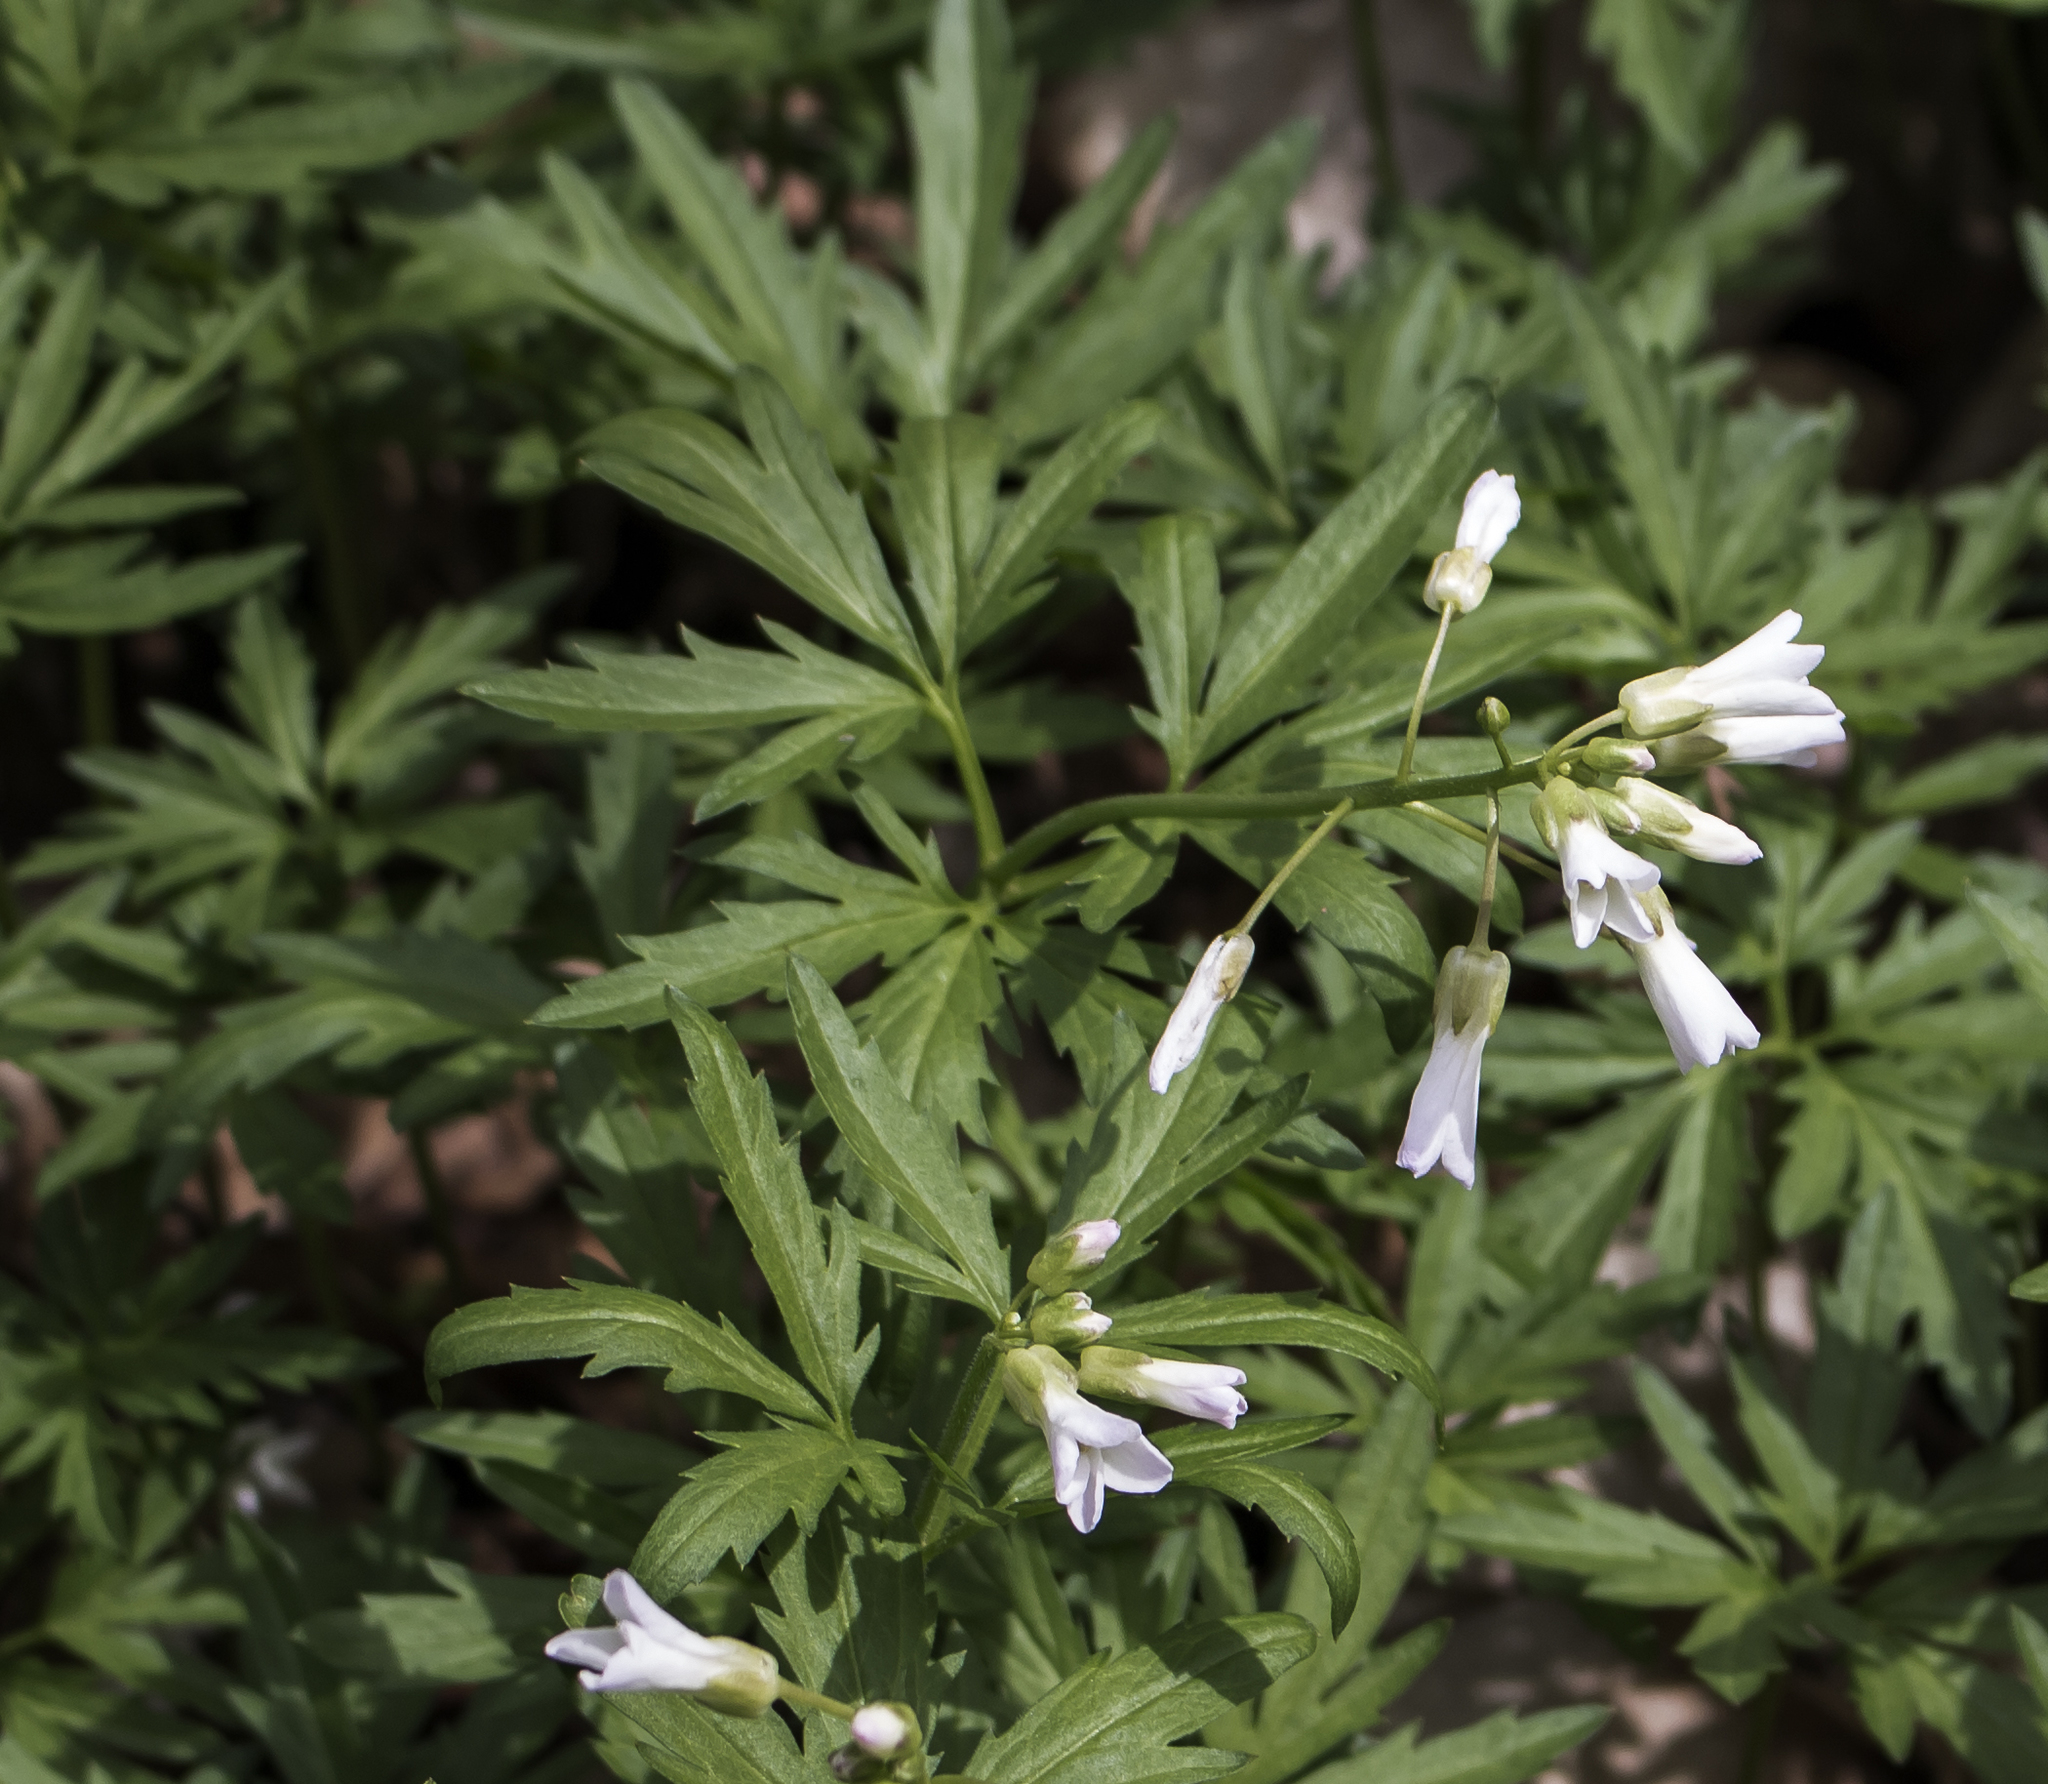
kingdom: Plantae
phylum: Tracheophyta
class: Magnoliopsida
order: Brassicales
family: Brassicaceae
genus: Cardamine
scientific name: Cardamine concatenata
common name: Cut-leaf toothcup
